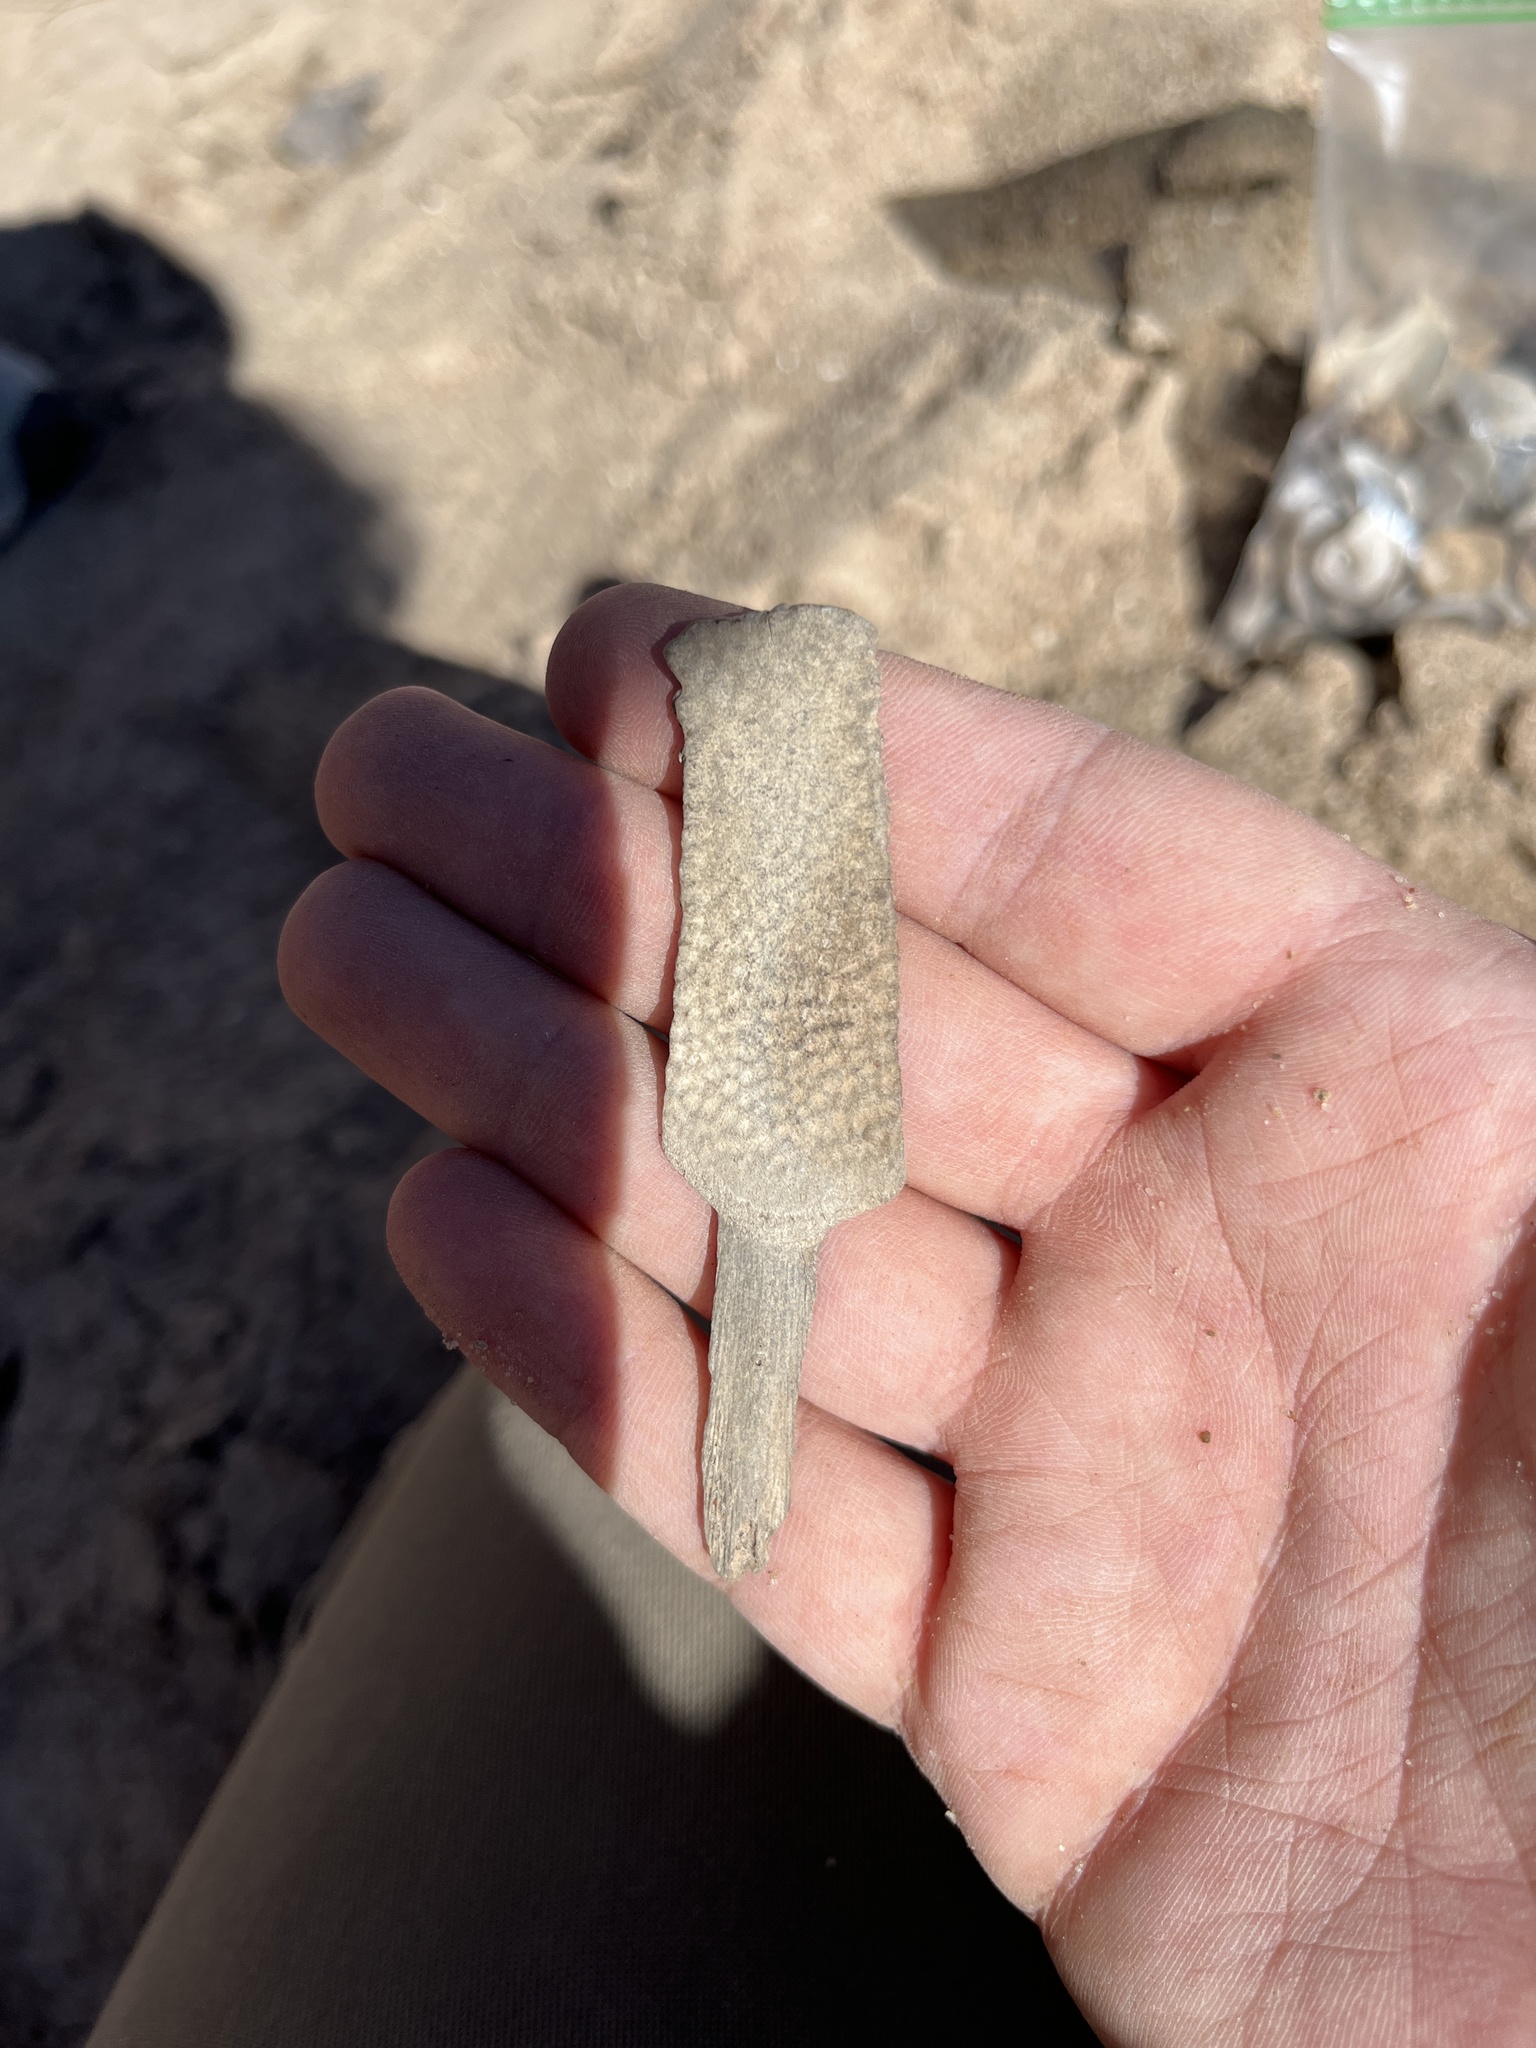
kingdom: Animalia
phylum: Chordata
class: Testudines
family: Trionychidae
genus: Apalone
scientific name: Apalone
